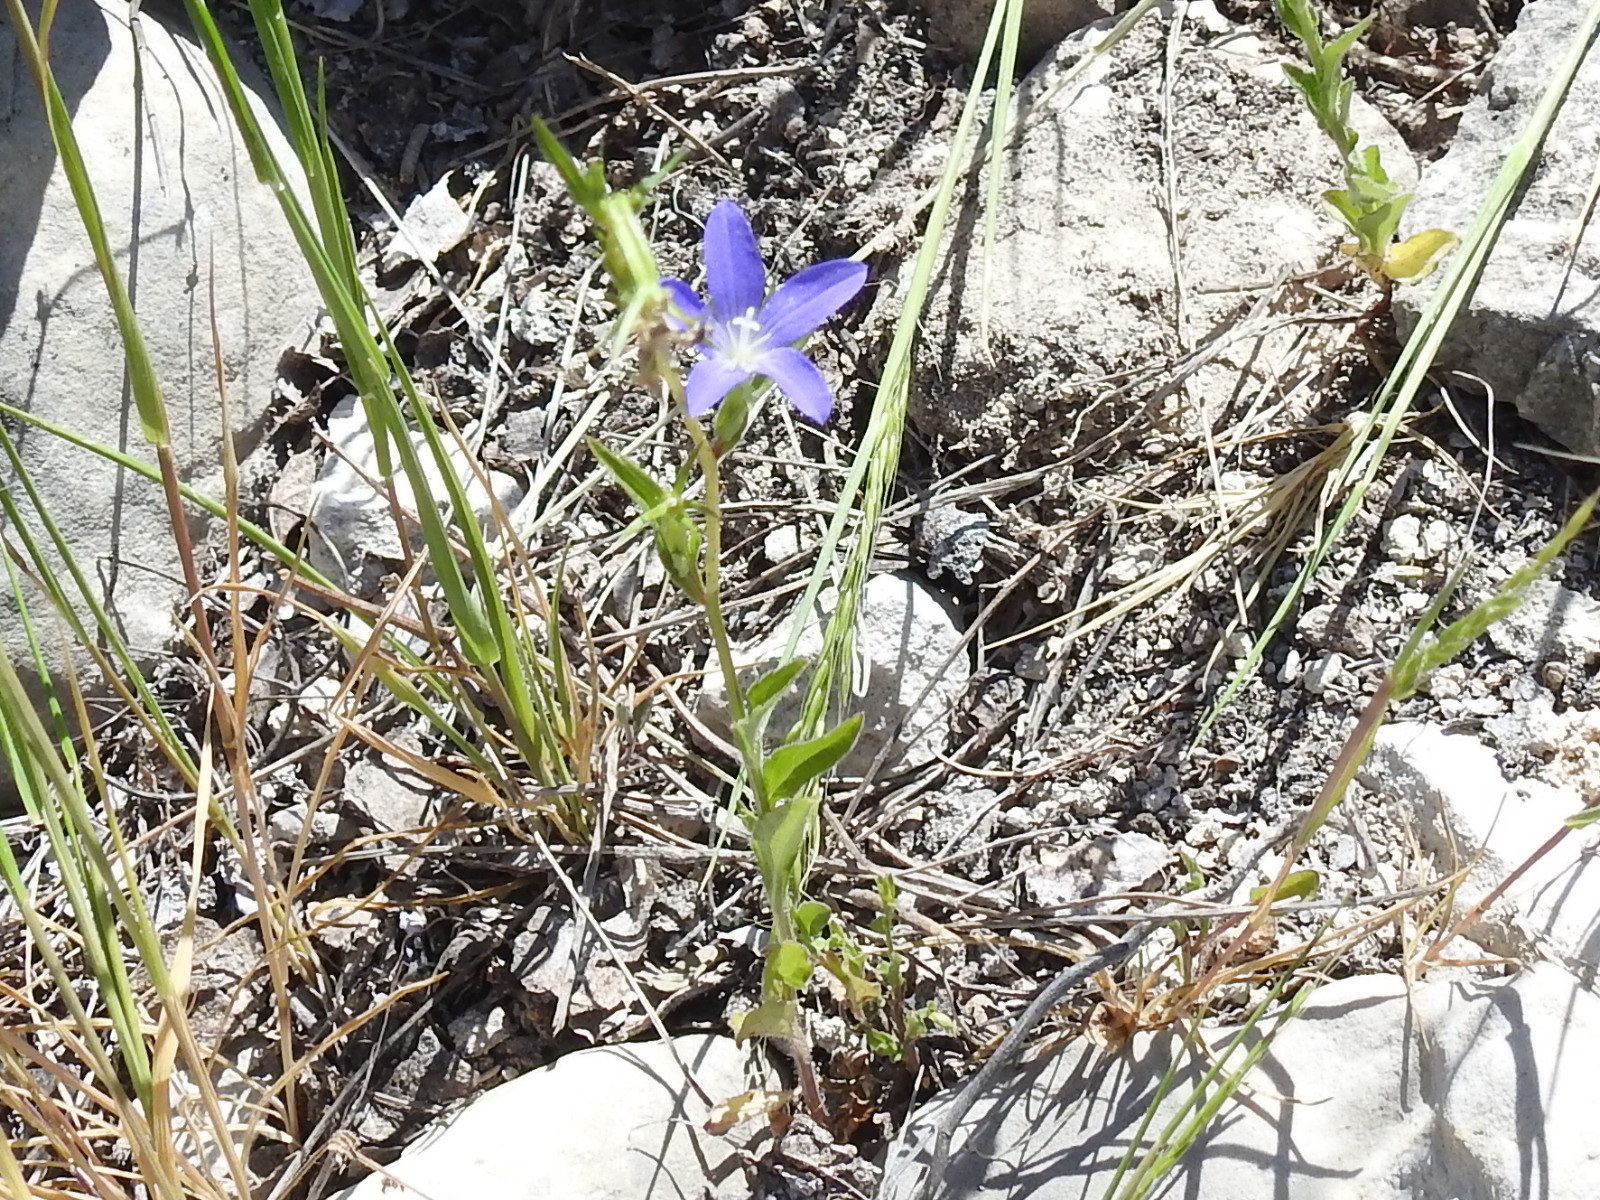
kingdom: Plantae
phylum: Tracheophyta
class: Magnoliopsida
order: Asterales
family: Campanulaceae
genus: Triodanis
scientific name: Triodanis coloradoensis
